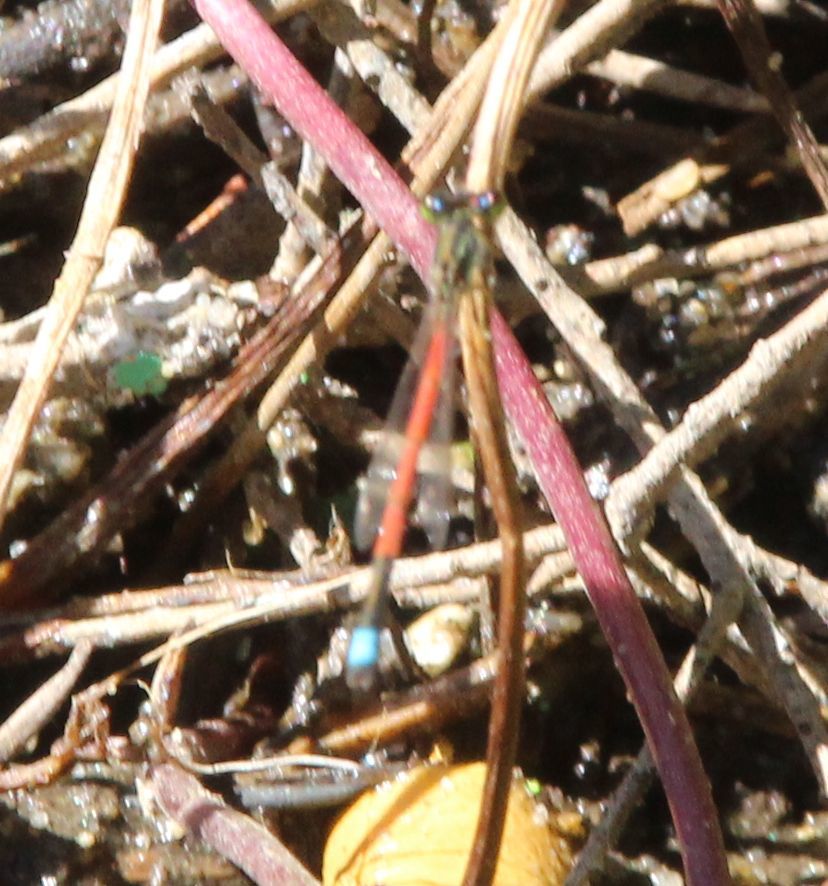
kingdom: Animalia
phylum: Arthropoda
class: Insecta
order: Odonata
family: Coenagrionidae
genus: Ischnura
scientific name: Ischnura aurora
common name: Gossamer damselfly
